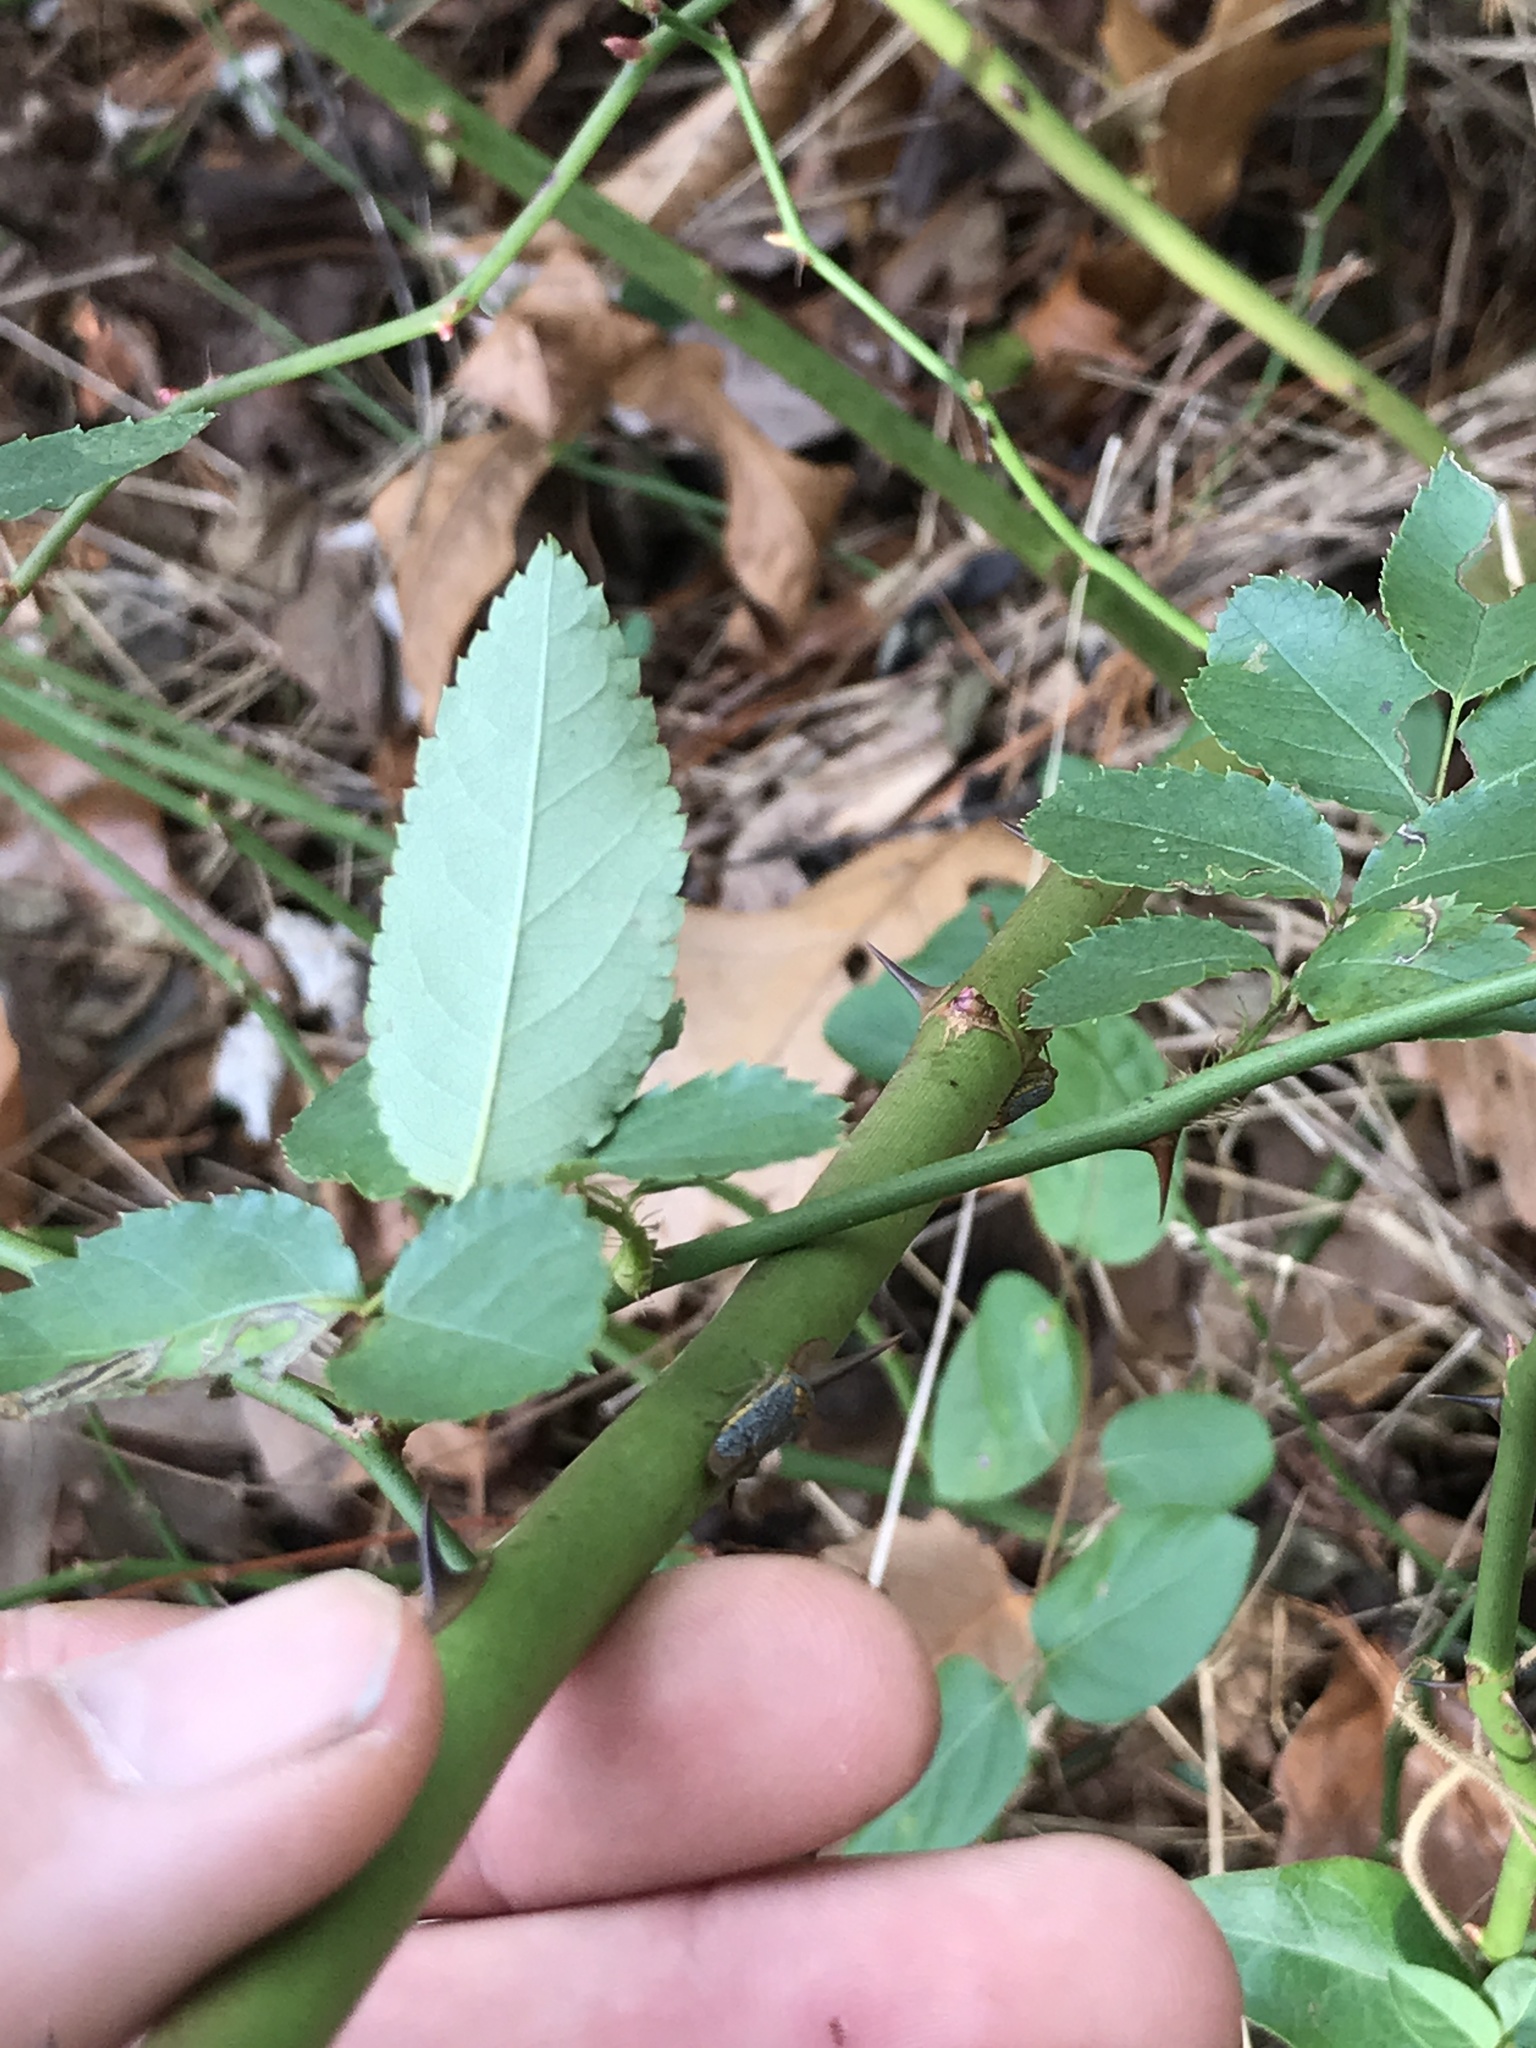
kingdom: Plantae
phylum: Tracheophyta
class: Magnoliopsida
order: Rosales
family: Rosaceae
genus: Rosa
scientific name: Rosa multiflora
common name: Multiflora rose
